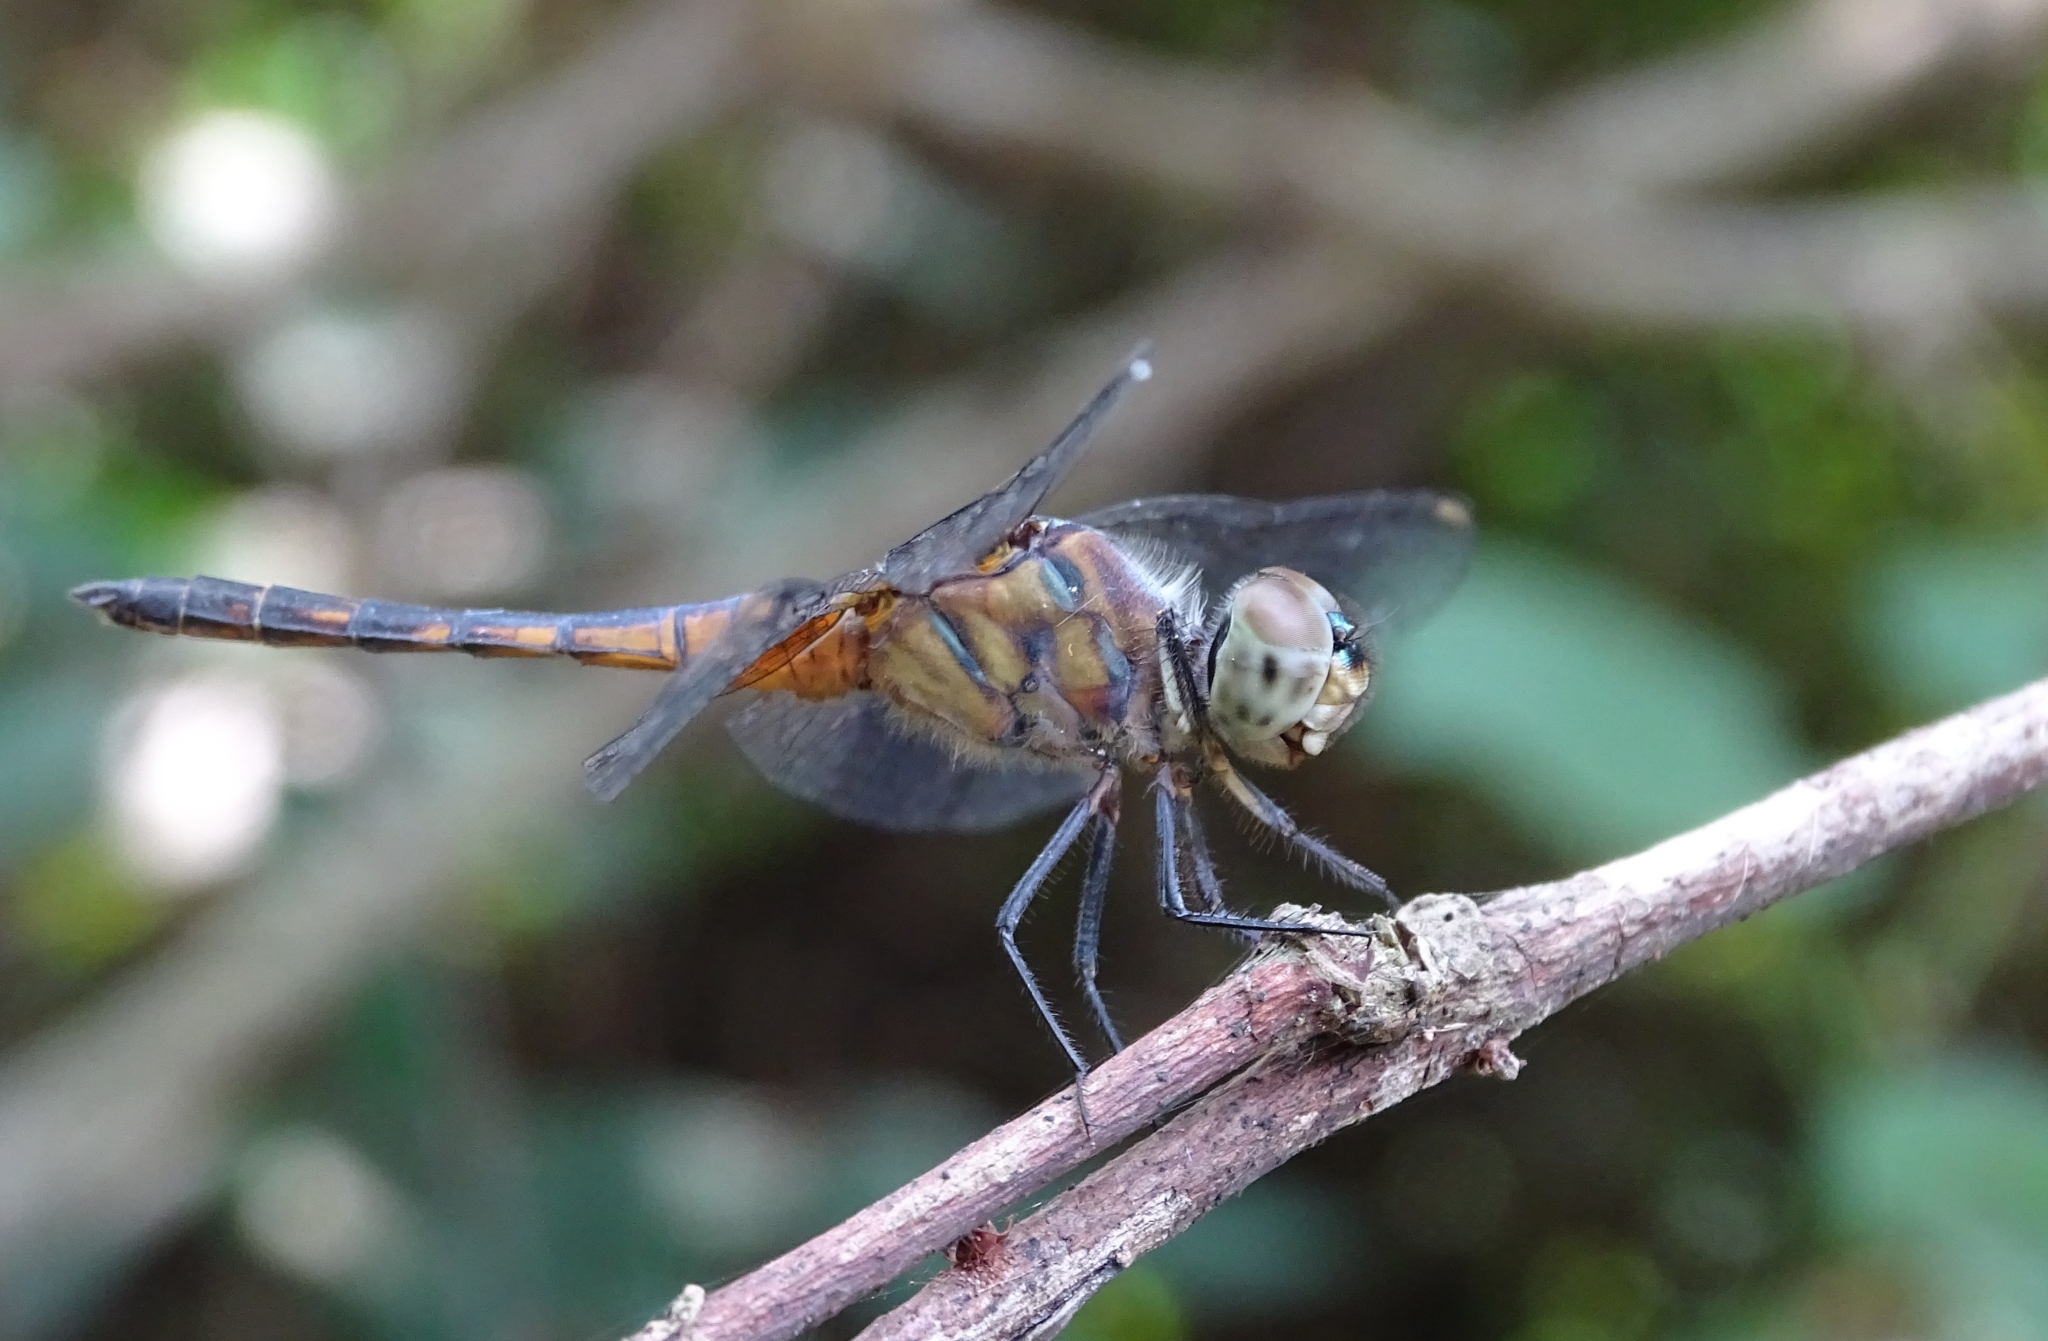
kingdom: Animalia
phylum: Arthropoda
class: Insecta
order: Odonata
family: Libellulidae
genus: Brachydiplax
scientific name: Brachydiplax chalybea
